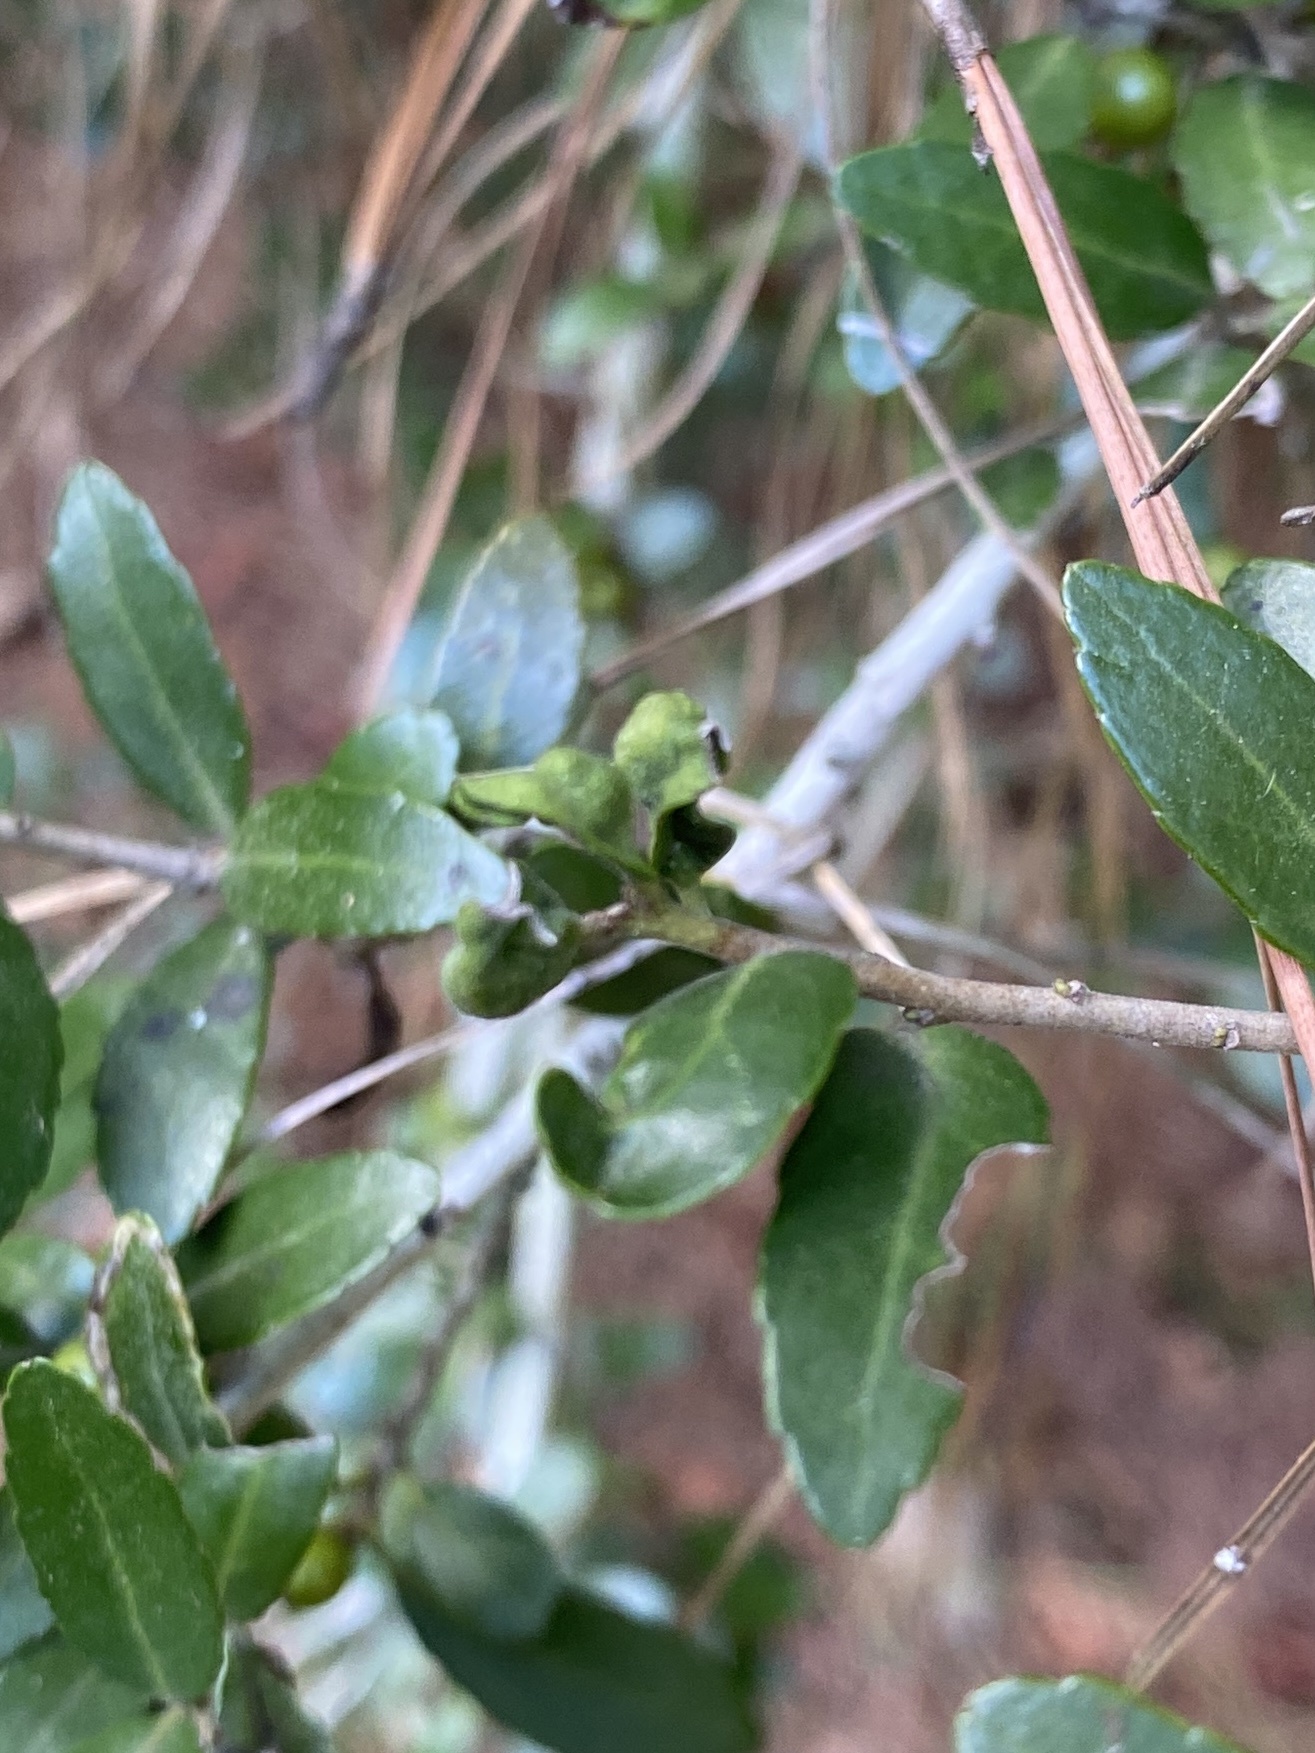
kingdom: Animalia
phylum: Arthropoda
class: Insecta
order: Hemiptera
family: Aphalaridae
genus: Gyropsylla
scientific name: Gyropsylla ilecis
